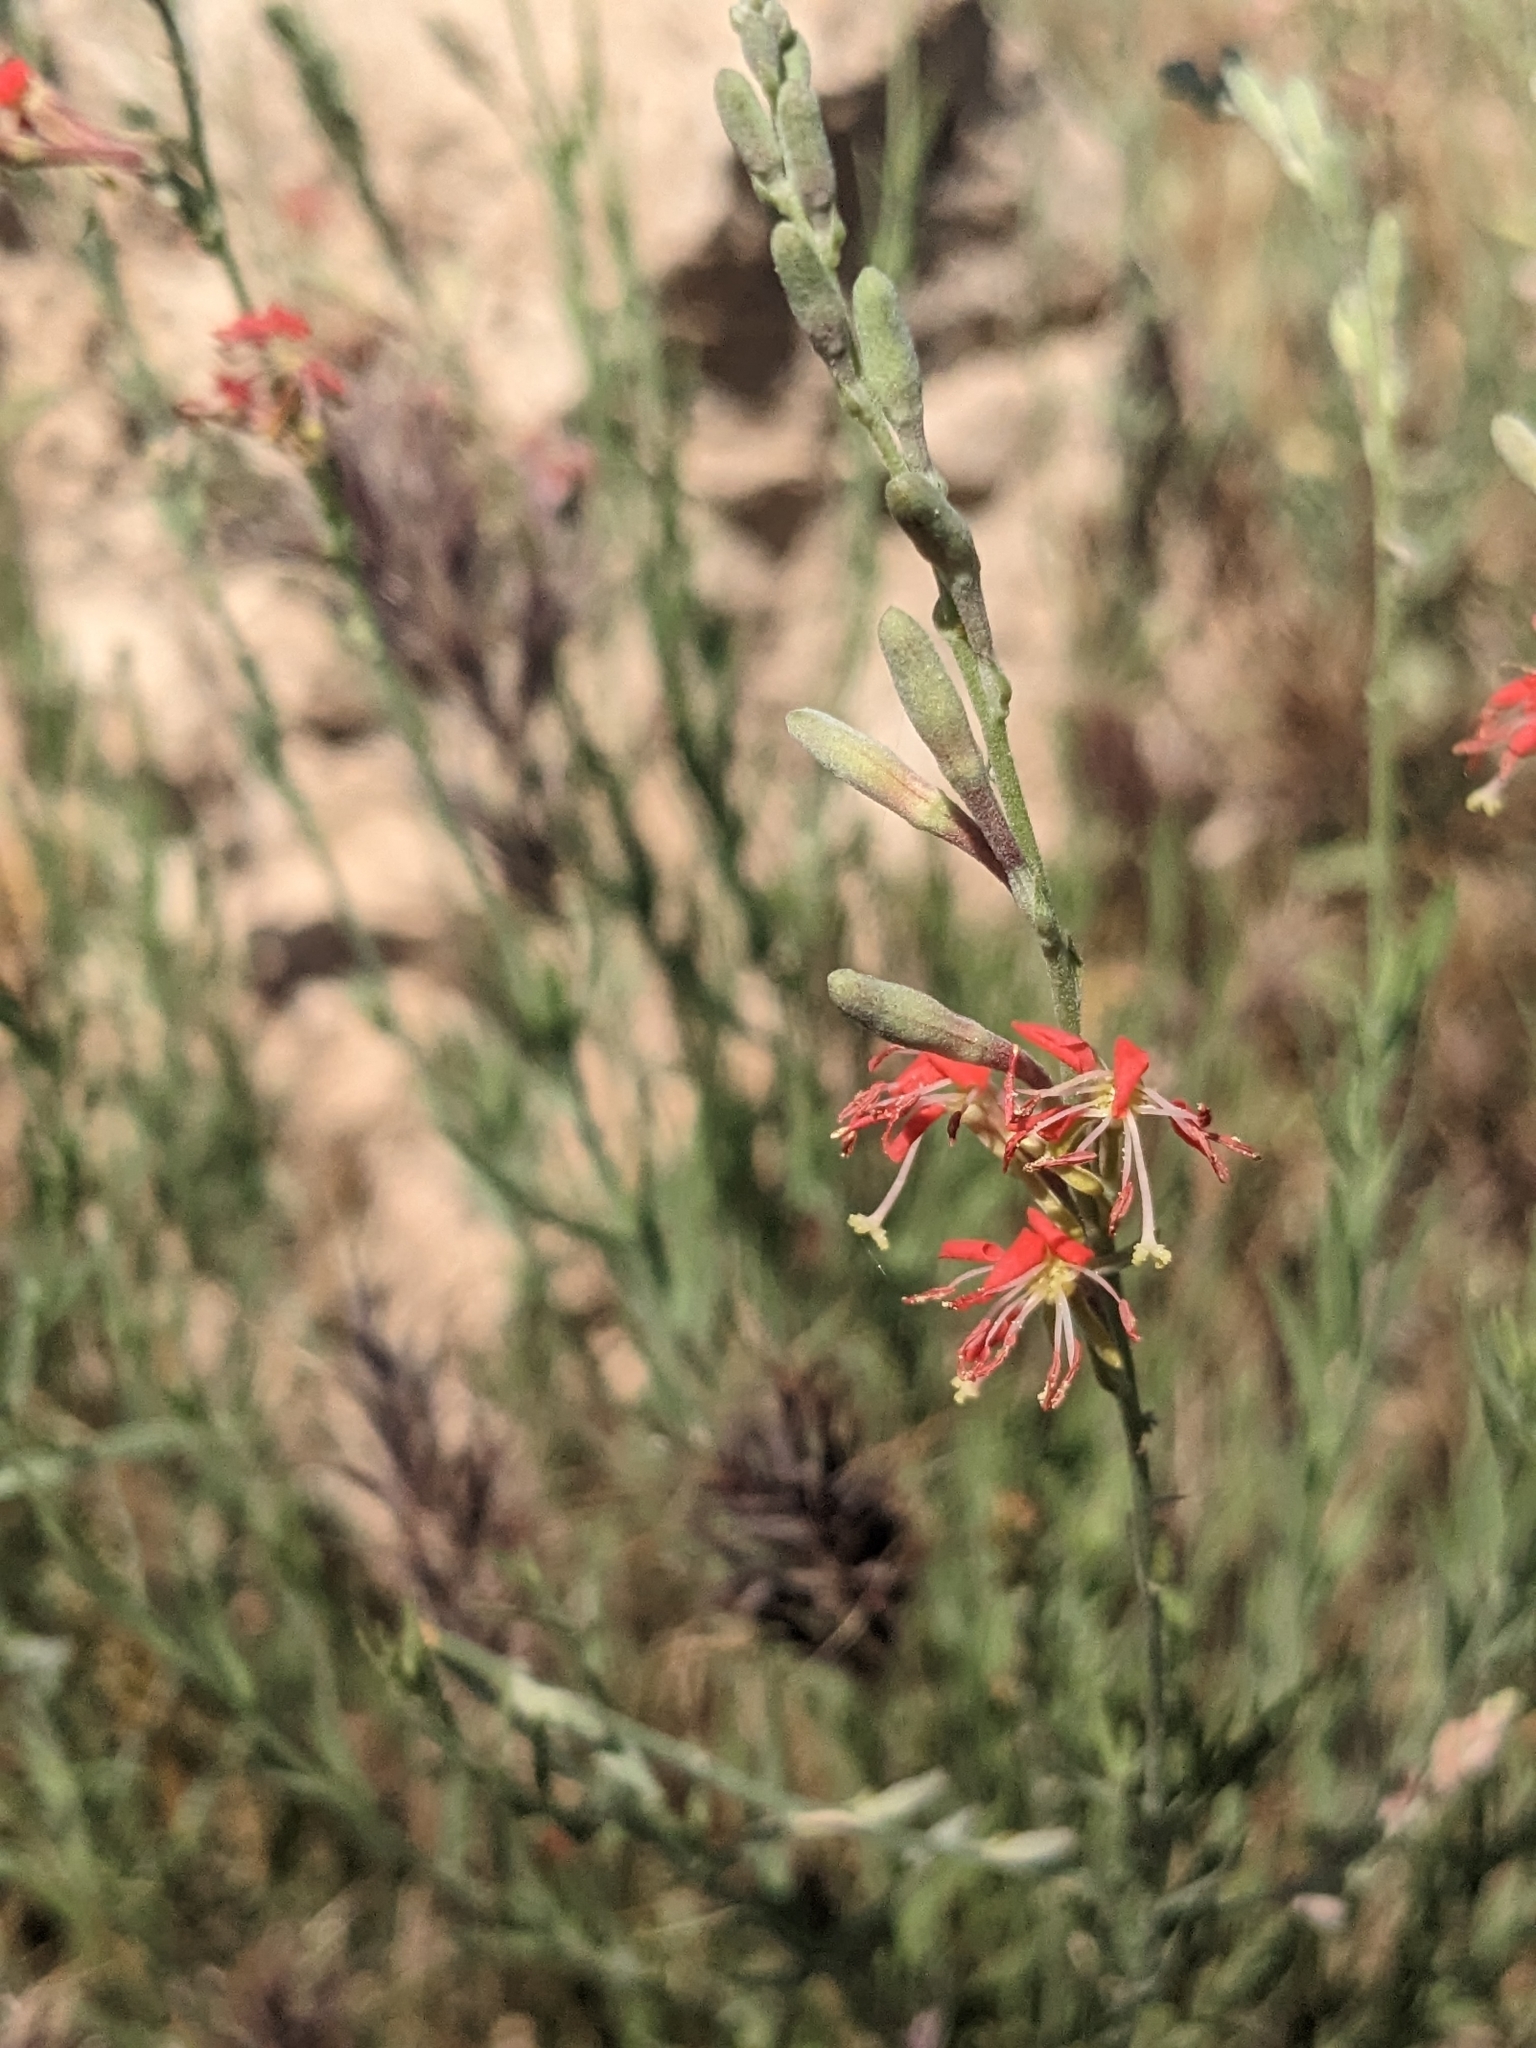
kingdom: Plantae
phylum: Tracheophyta
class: Magnoliopsida
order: Myrtales
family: Onagraceae
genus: Oenothera
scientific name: Oenothera suffrutescens
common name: Scarlet beeblossom
